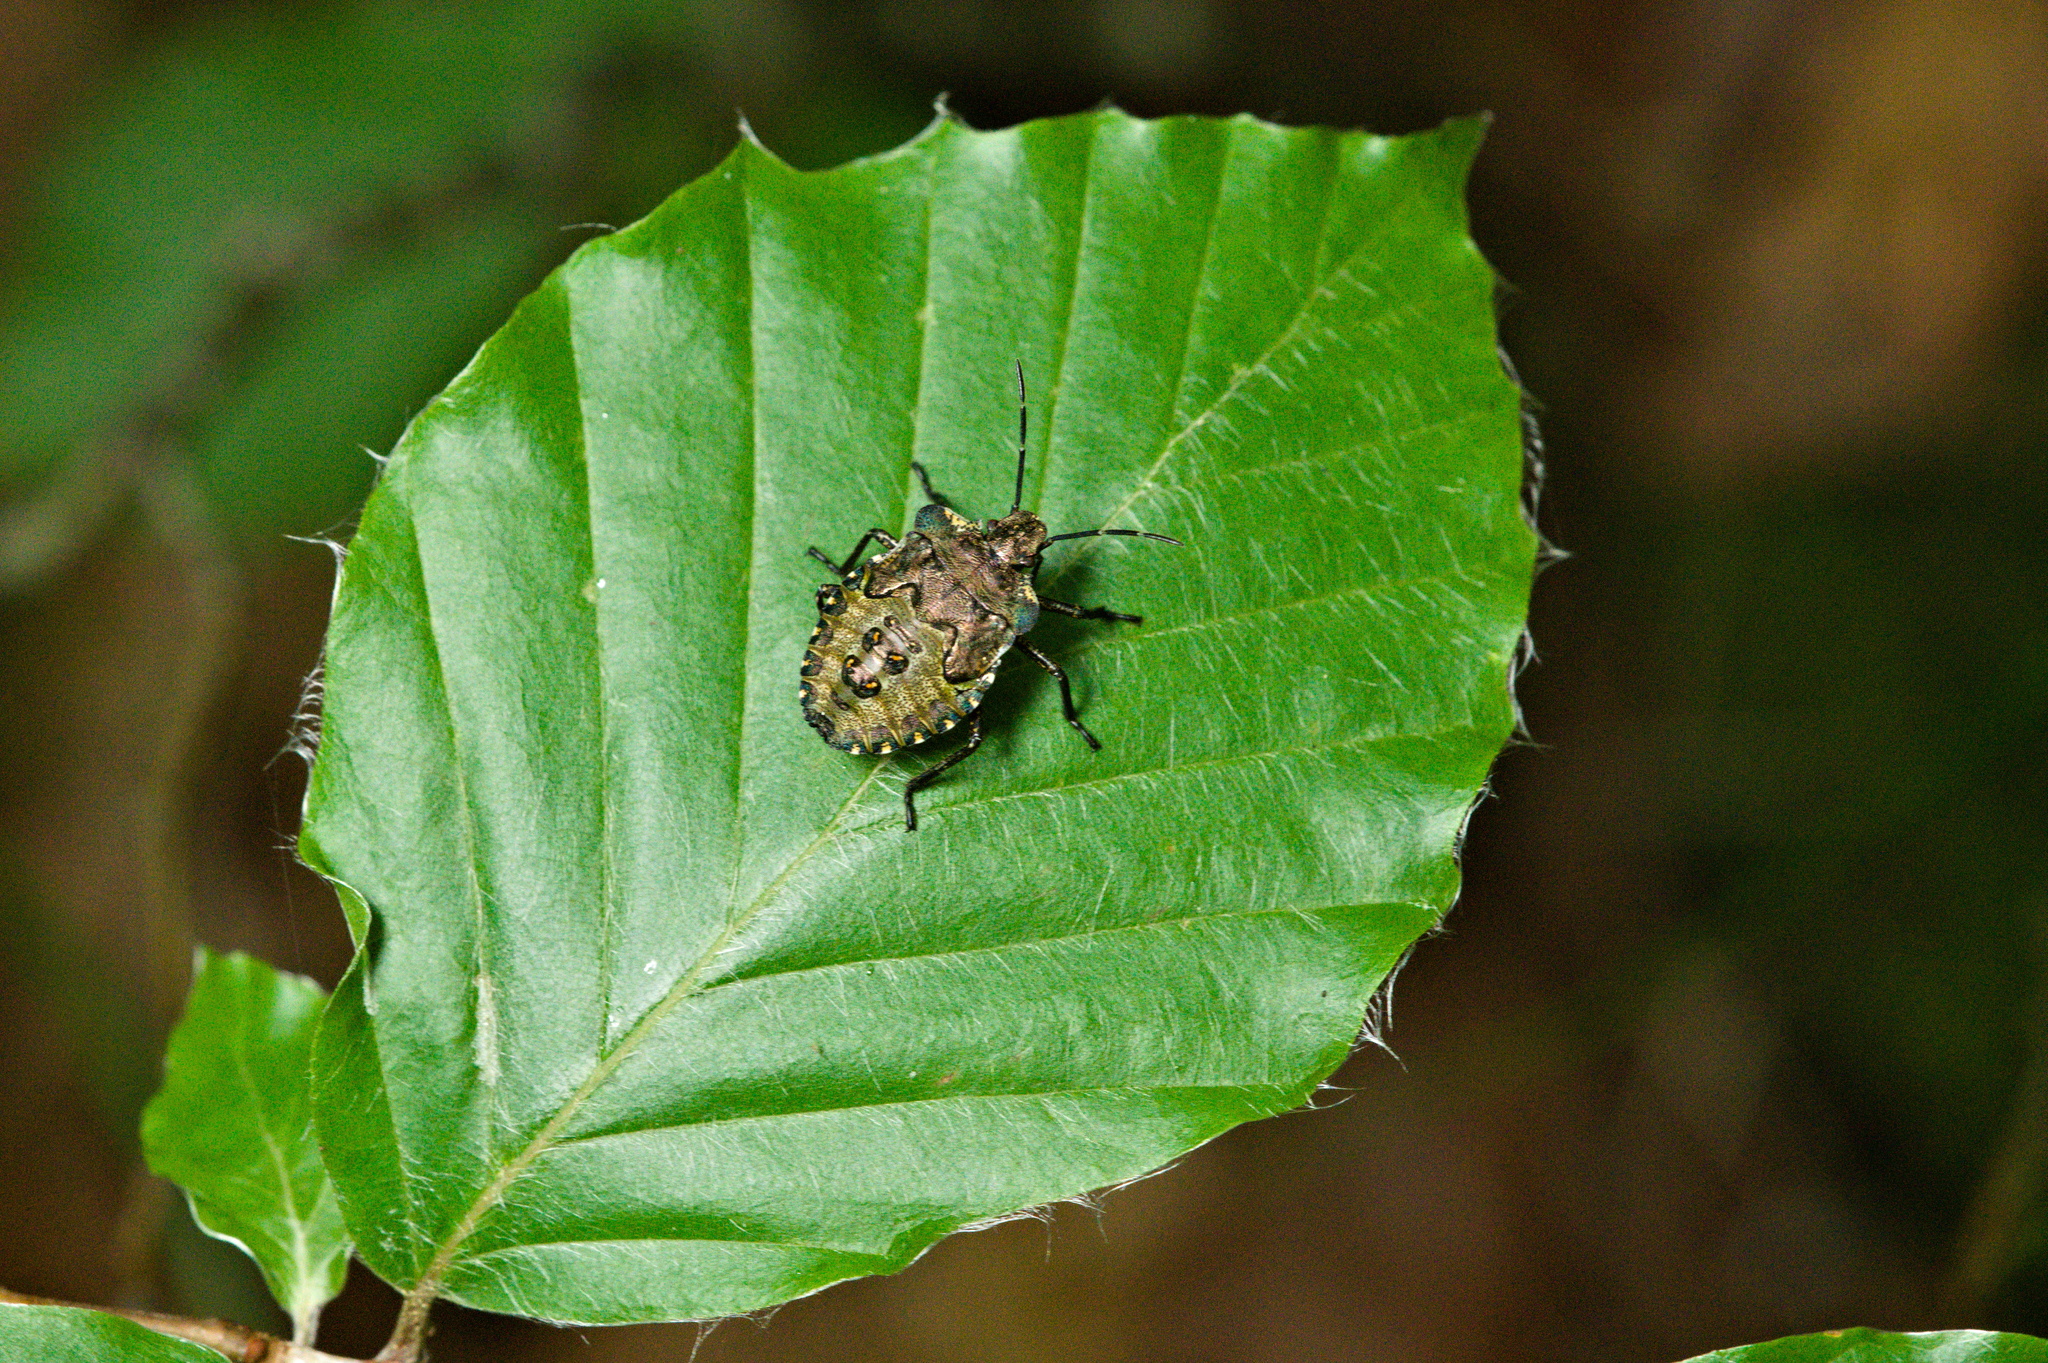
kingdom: Animalia
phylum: Arthropoda
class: Insecta
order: Hemiptera
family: Pentatomidae
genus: Pentatoma
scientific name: Pentatoma rufipes
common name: Forest bug
